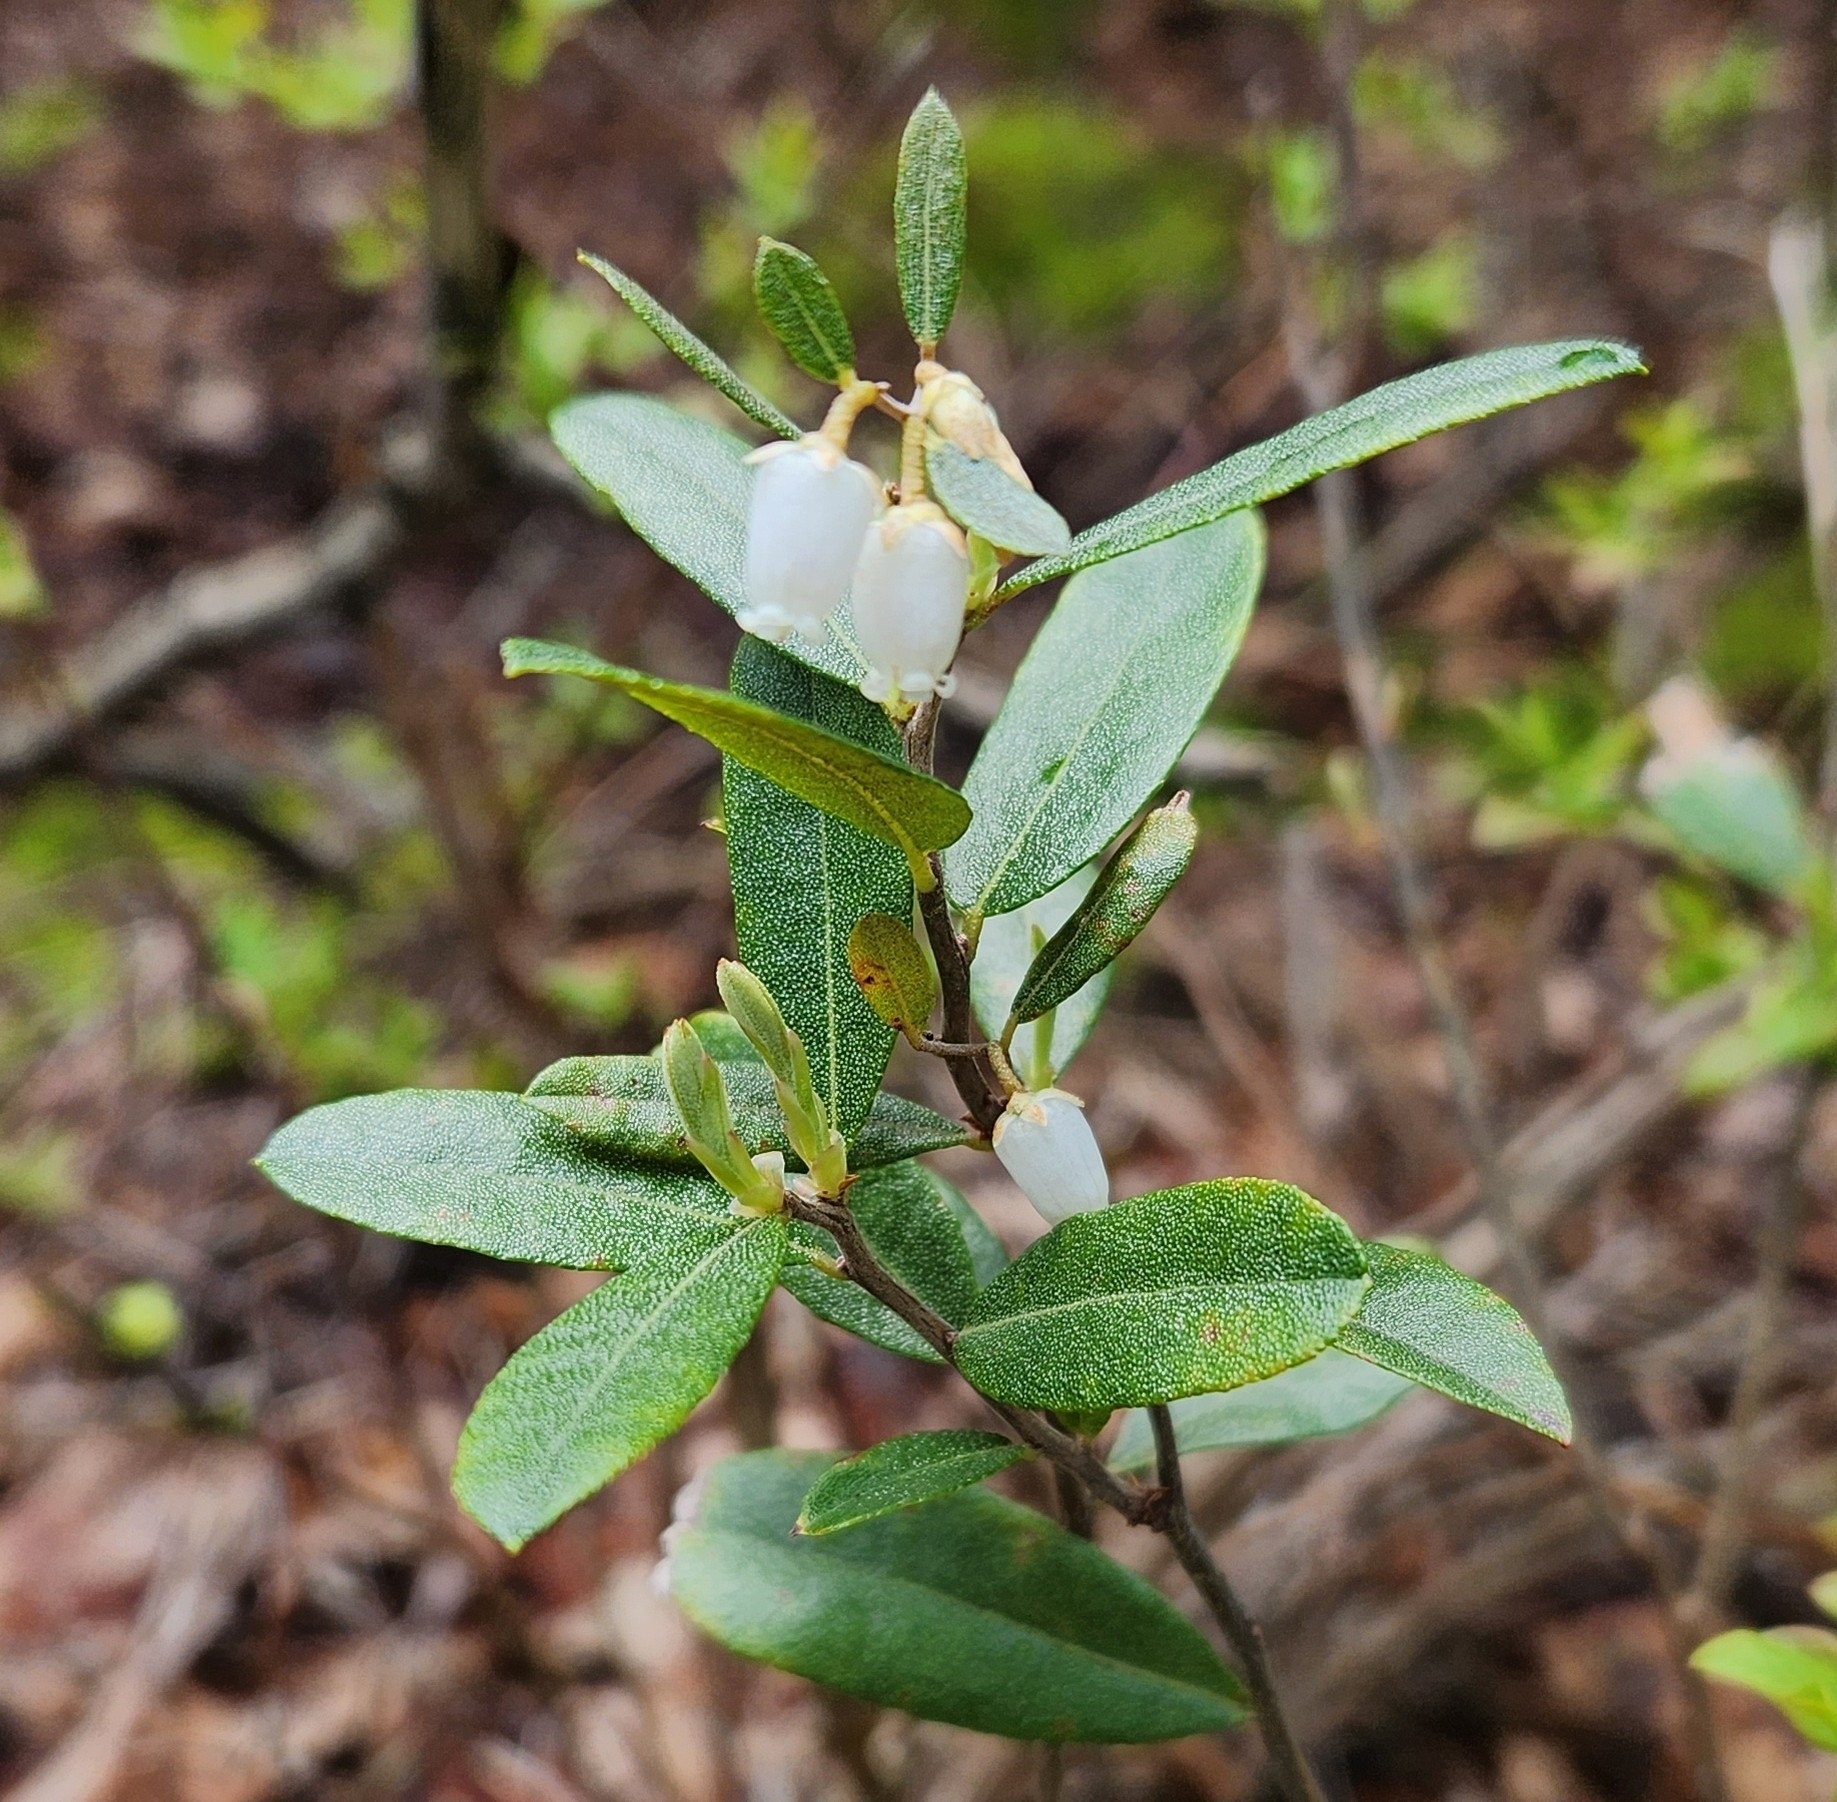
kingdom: Plantae
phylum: Tracheophyta
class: Magnoliopsida
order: Ericales
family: Ericaceae
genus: Chamaedaphne
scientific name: Chamaedaphne calyculata
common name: Leatherleaf
